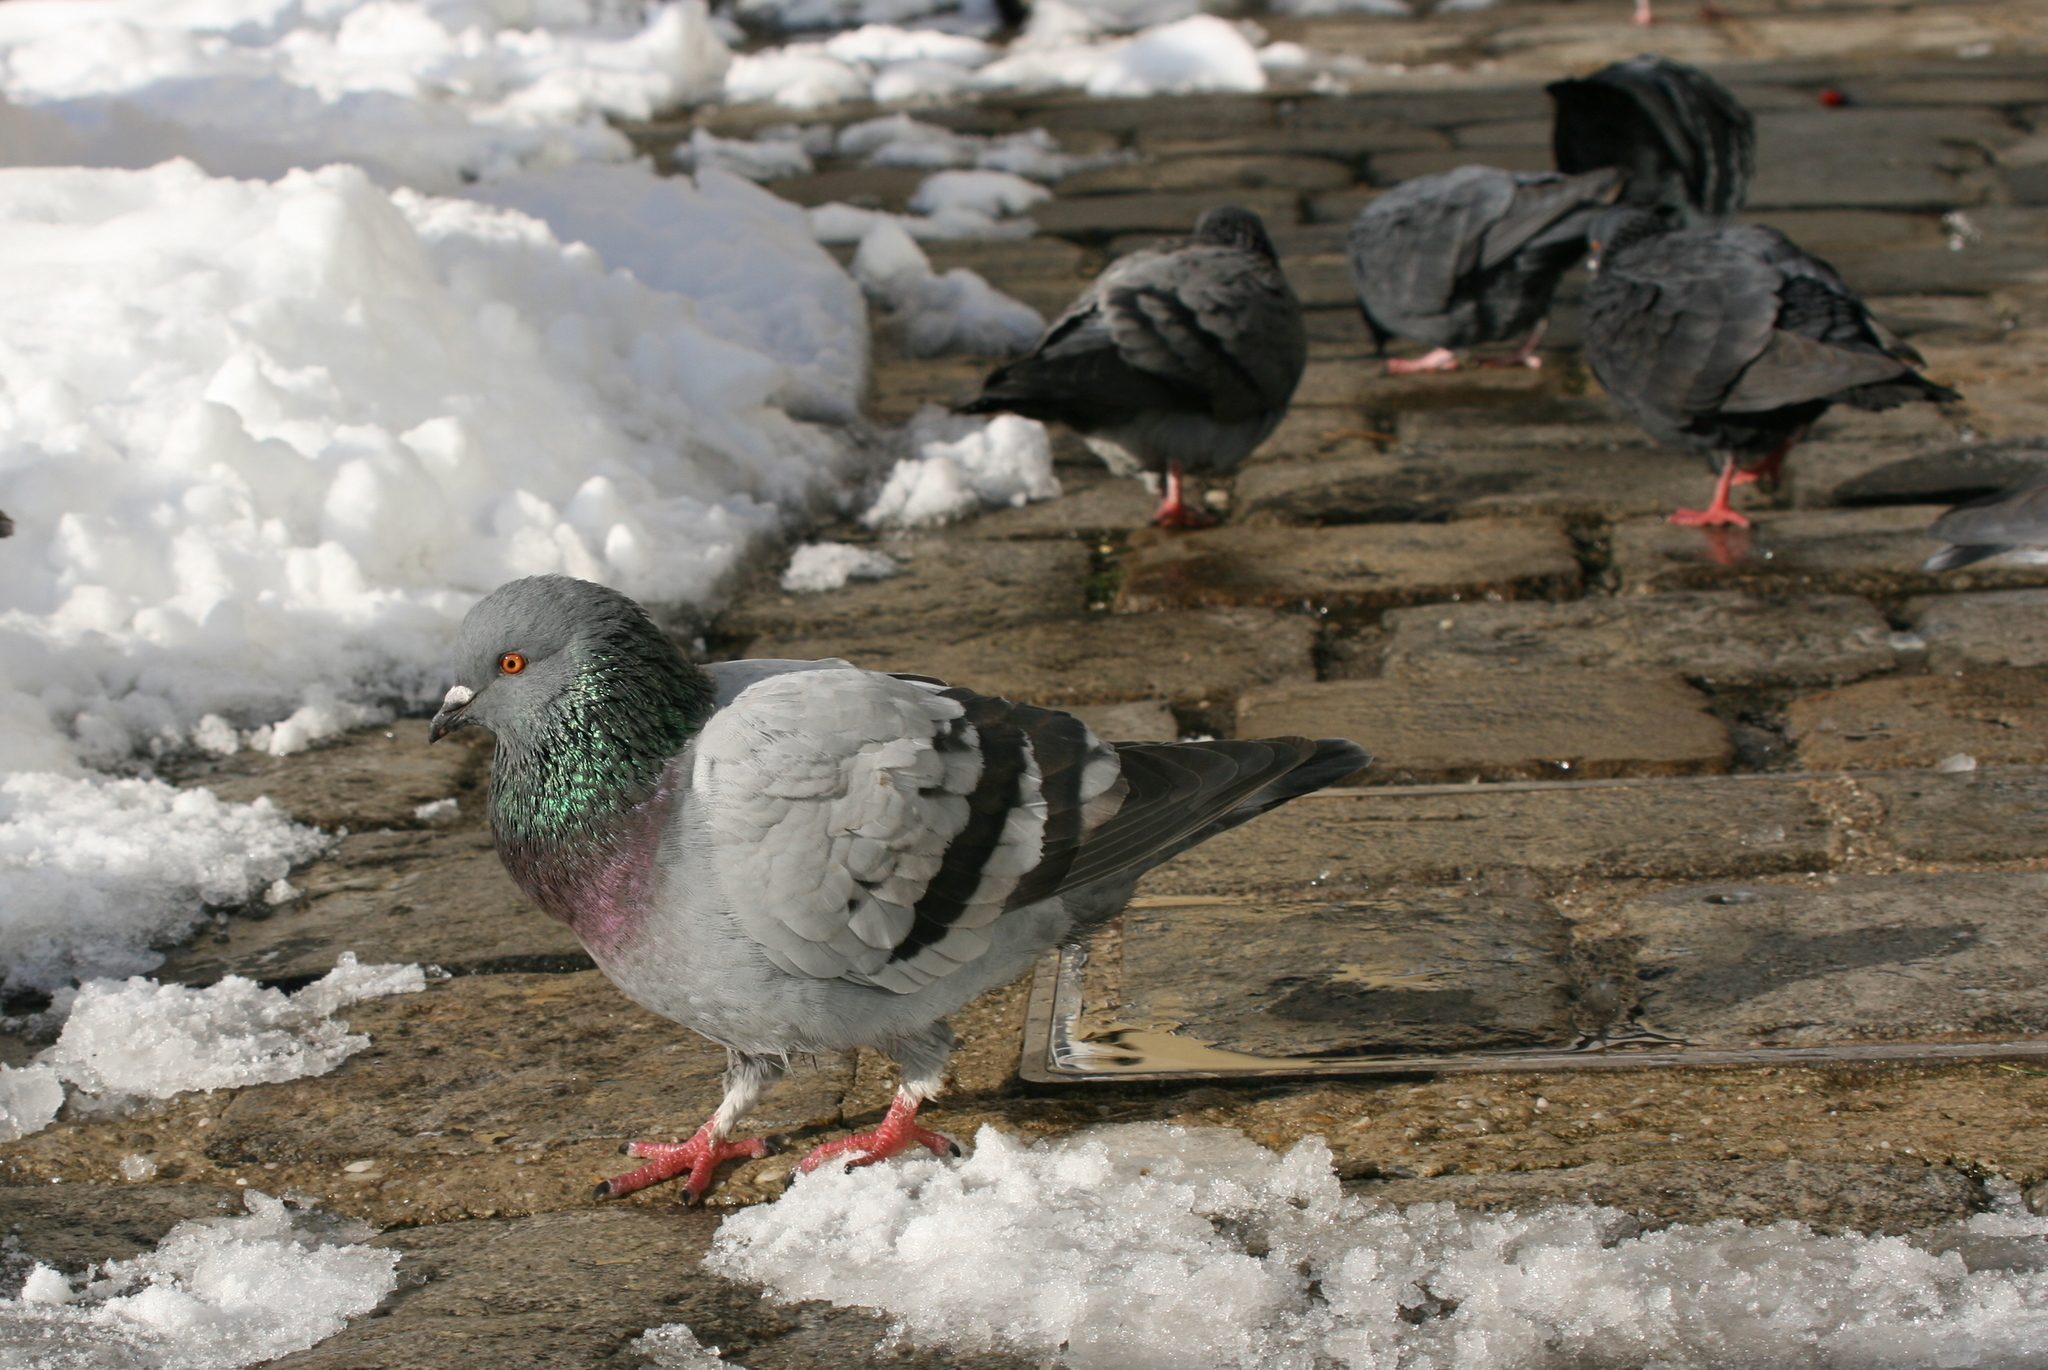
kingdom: Animalia
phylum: Chordata
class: Aves
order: Columbiformes
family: Columbidae
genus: Columba
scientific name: Columba livia
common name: Rock pigeon
